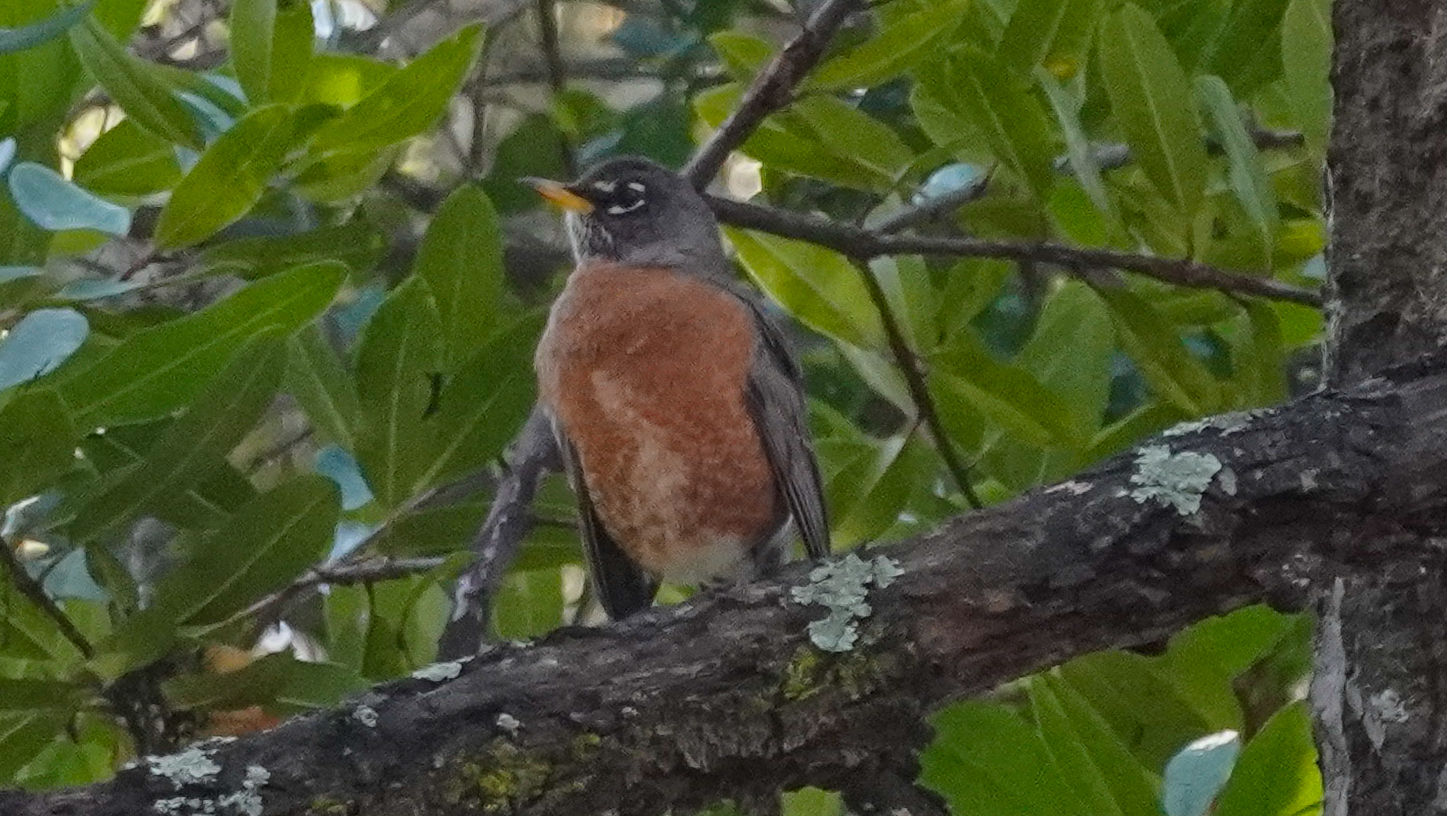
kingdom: Animalia
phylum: Chordata
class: Aves
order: Passeriformes
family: Turdidae
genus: Turdus
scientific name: Turdus migratorius
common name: American robin
